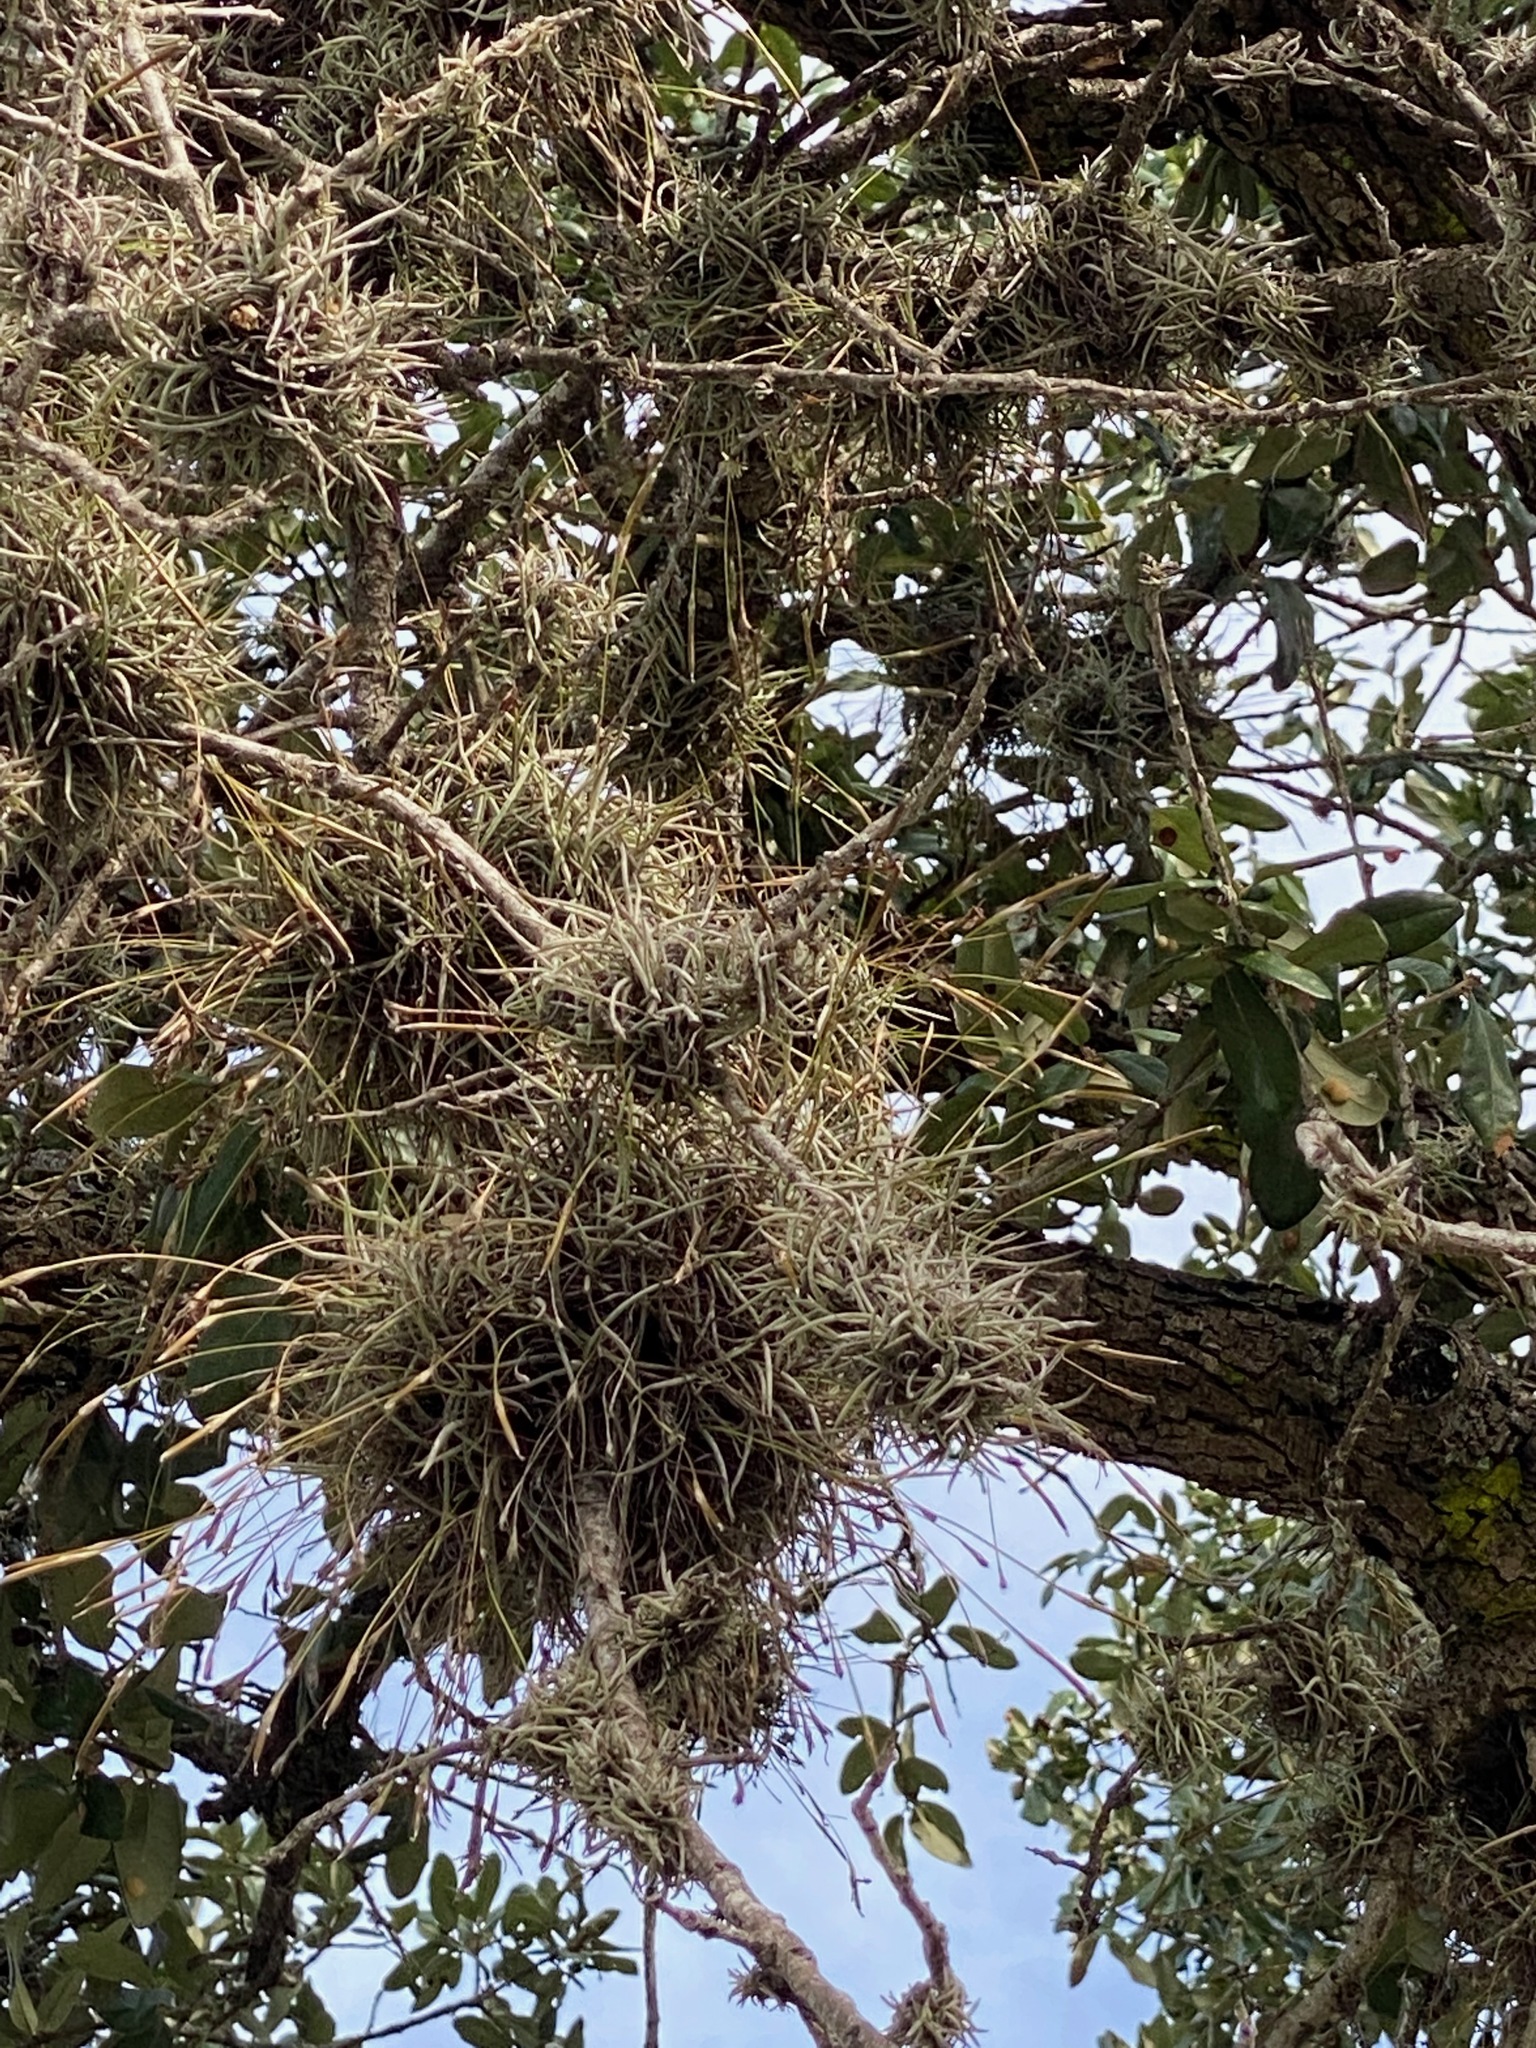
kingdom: Plantae
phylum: Tracheophyta
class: Liliopsida
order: Poales
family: Bromeliaceae
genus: Tillandsia
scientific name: Tillandsia recurvata
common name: Small ballmoss
